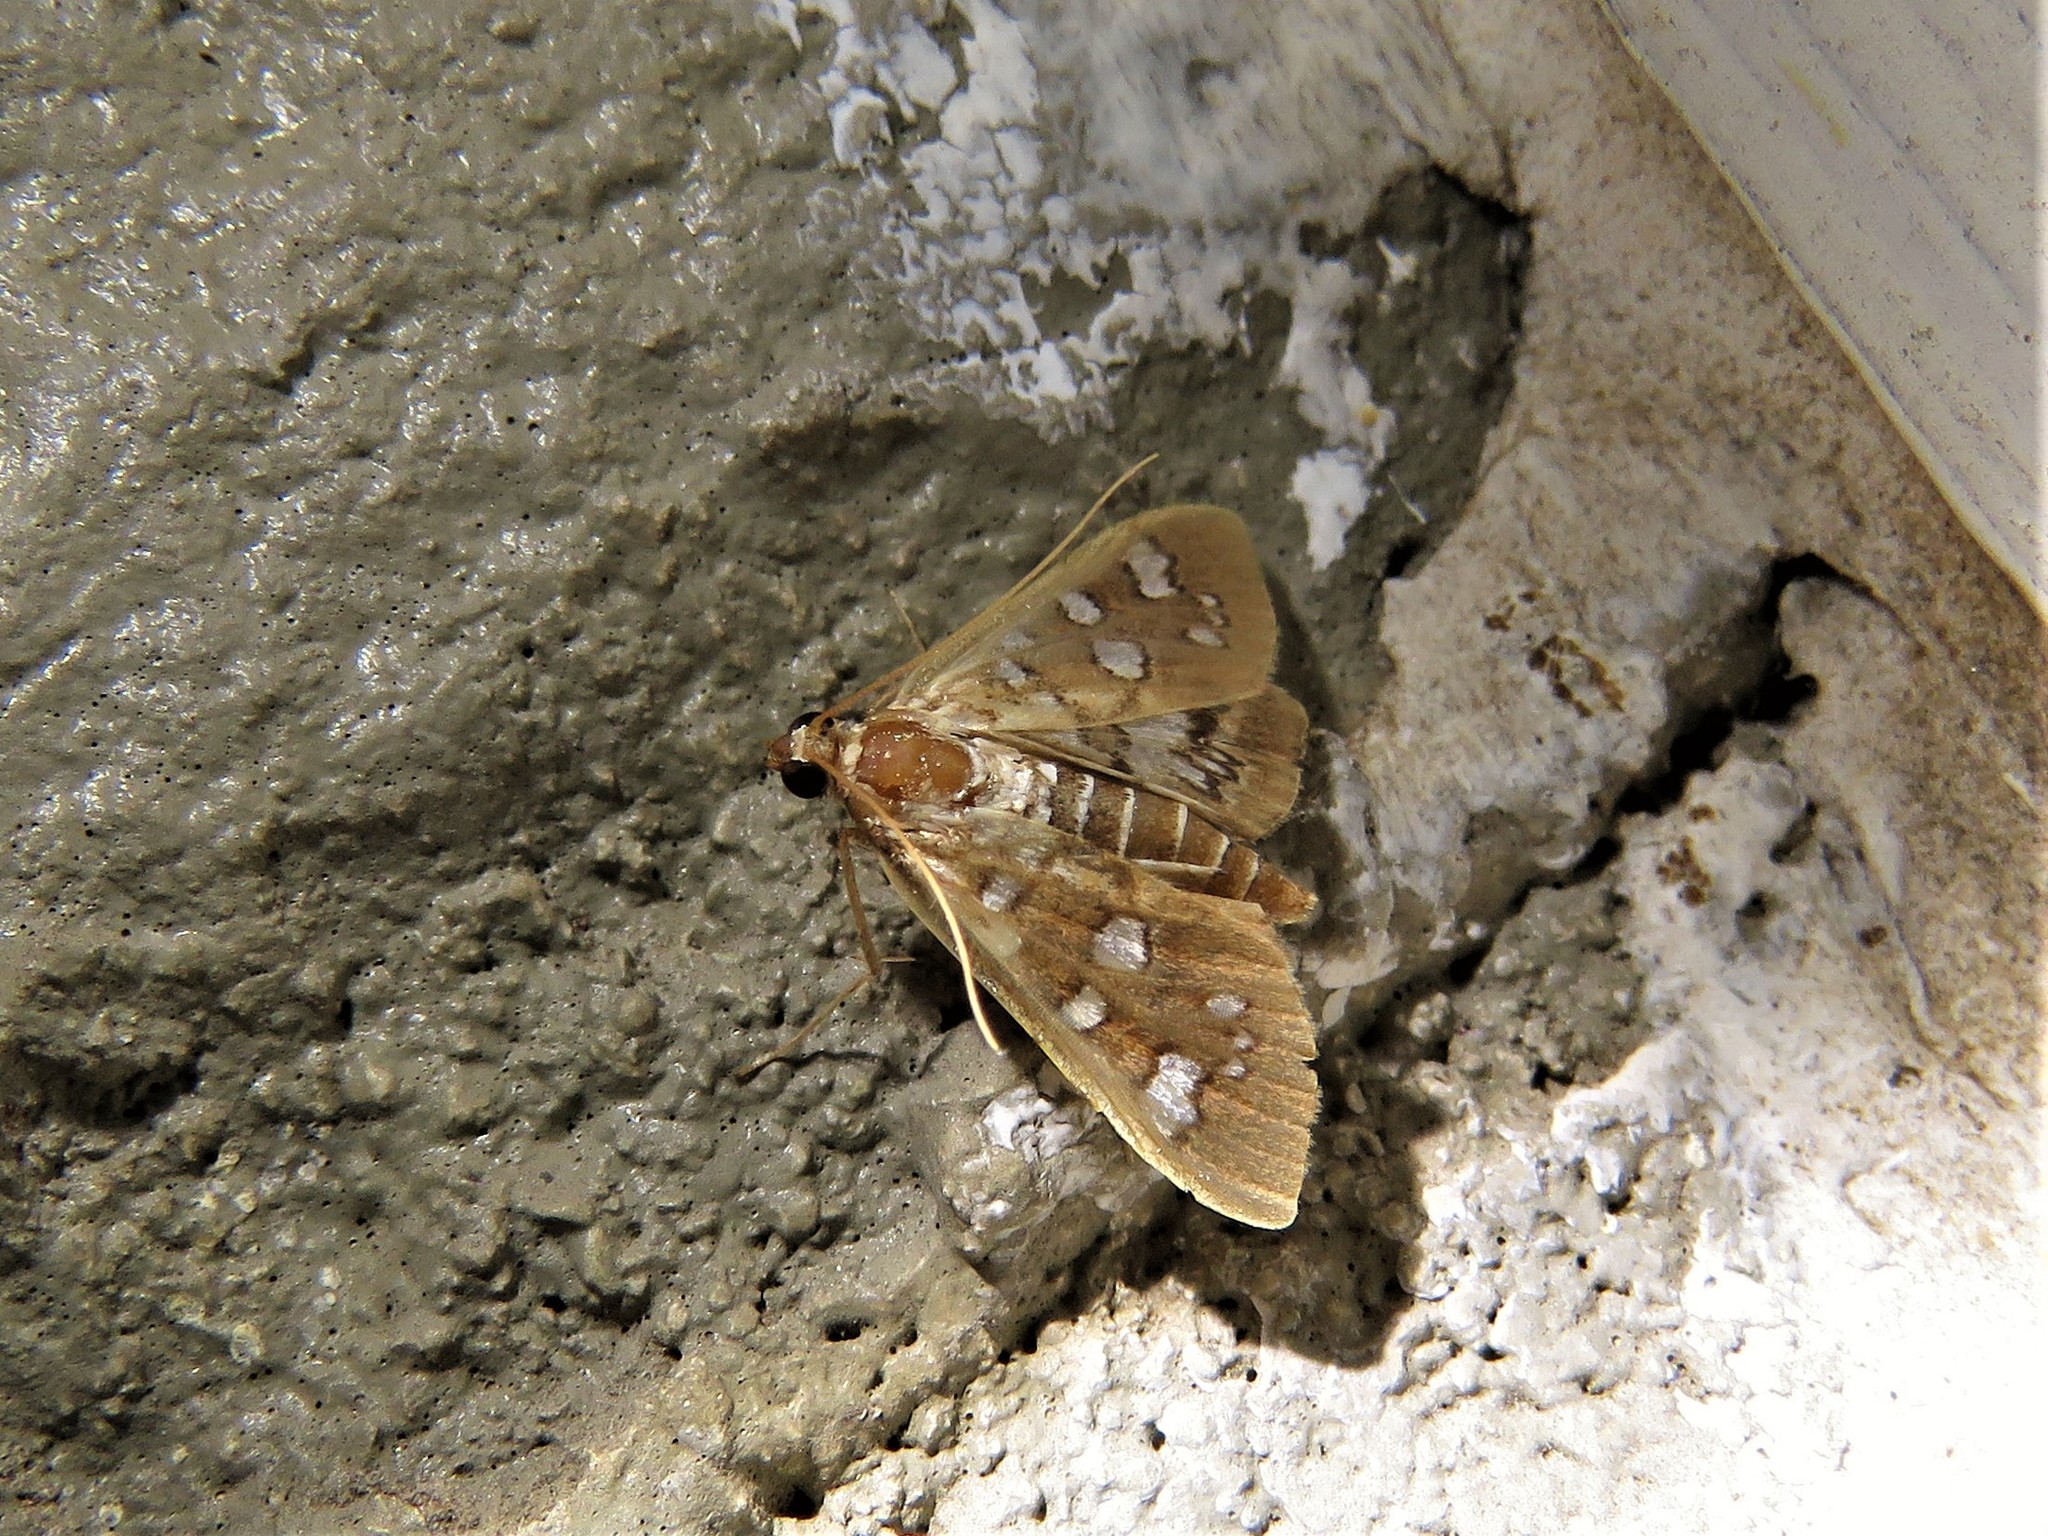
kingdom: Animalia
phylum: Arthropoda
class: Insecta
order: Lepidoptera
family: Crambidae
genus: Samea
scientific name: Samea baccatalis
